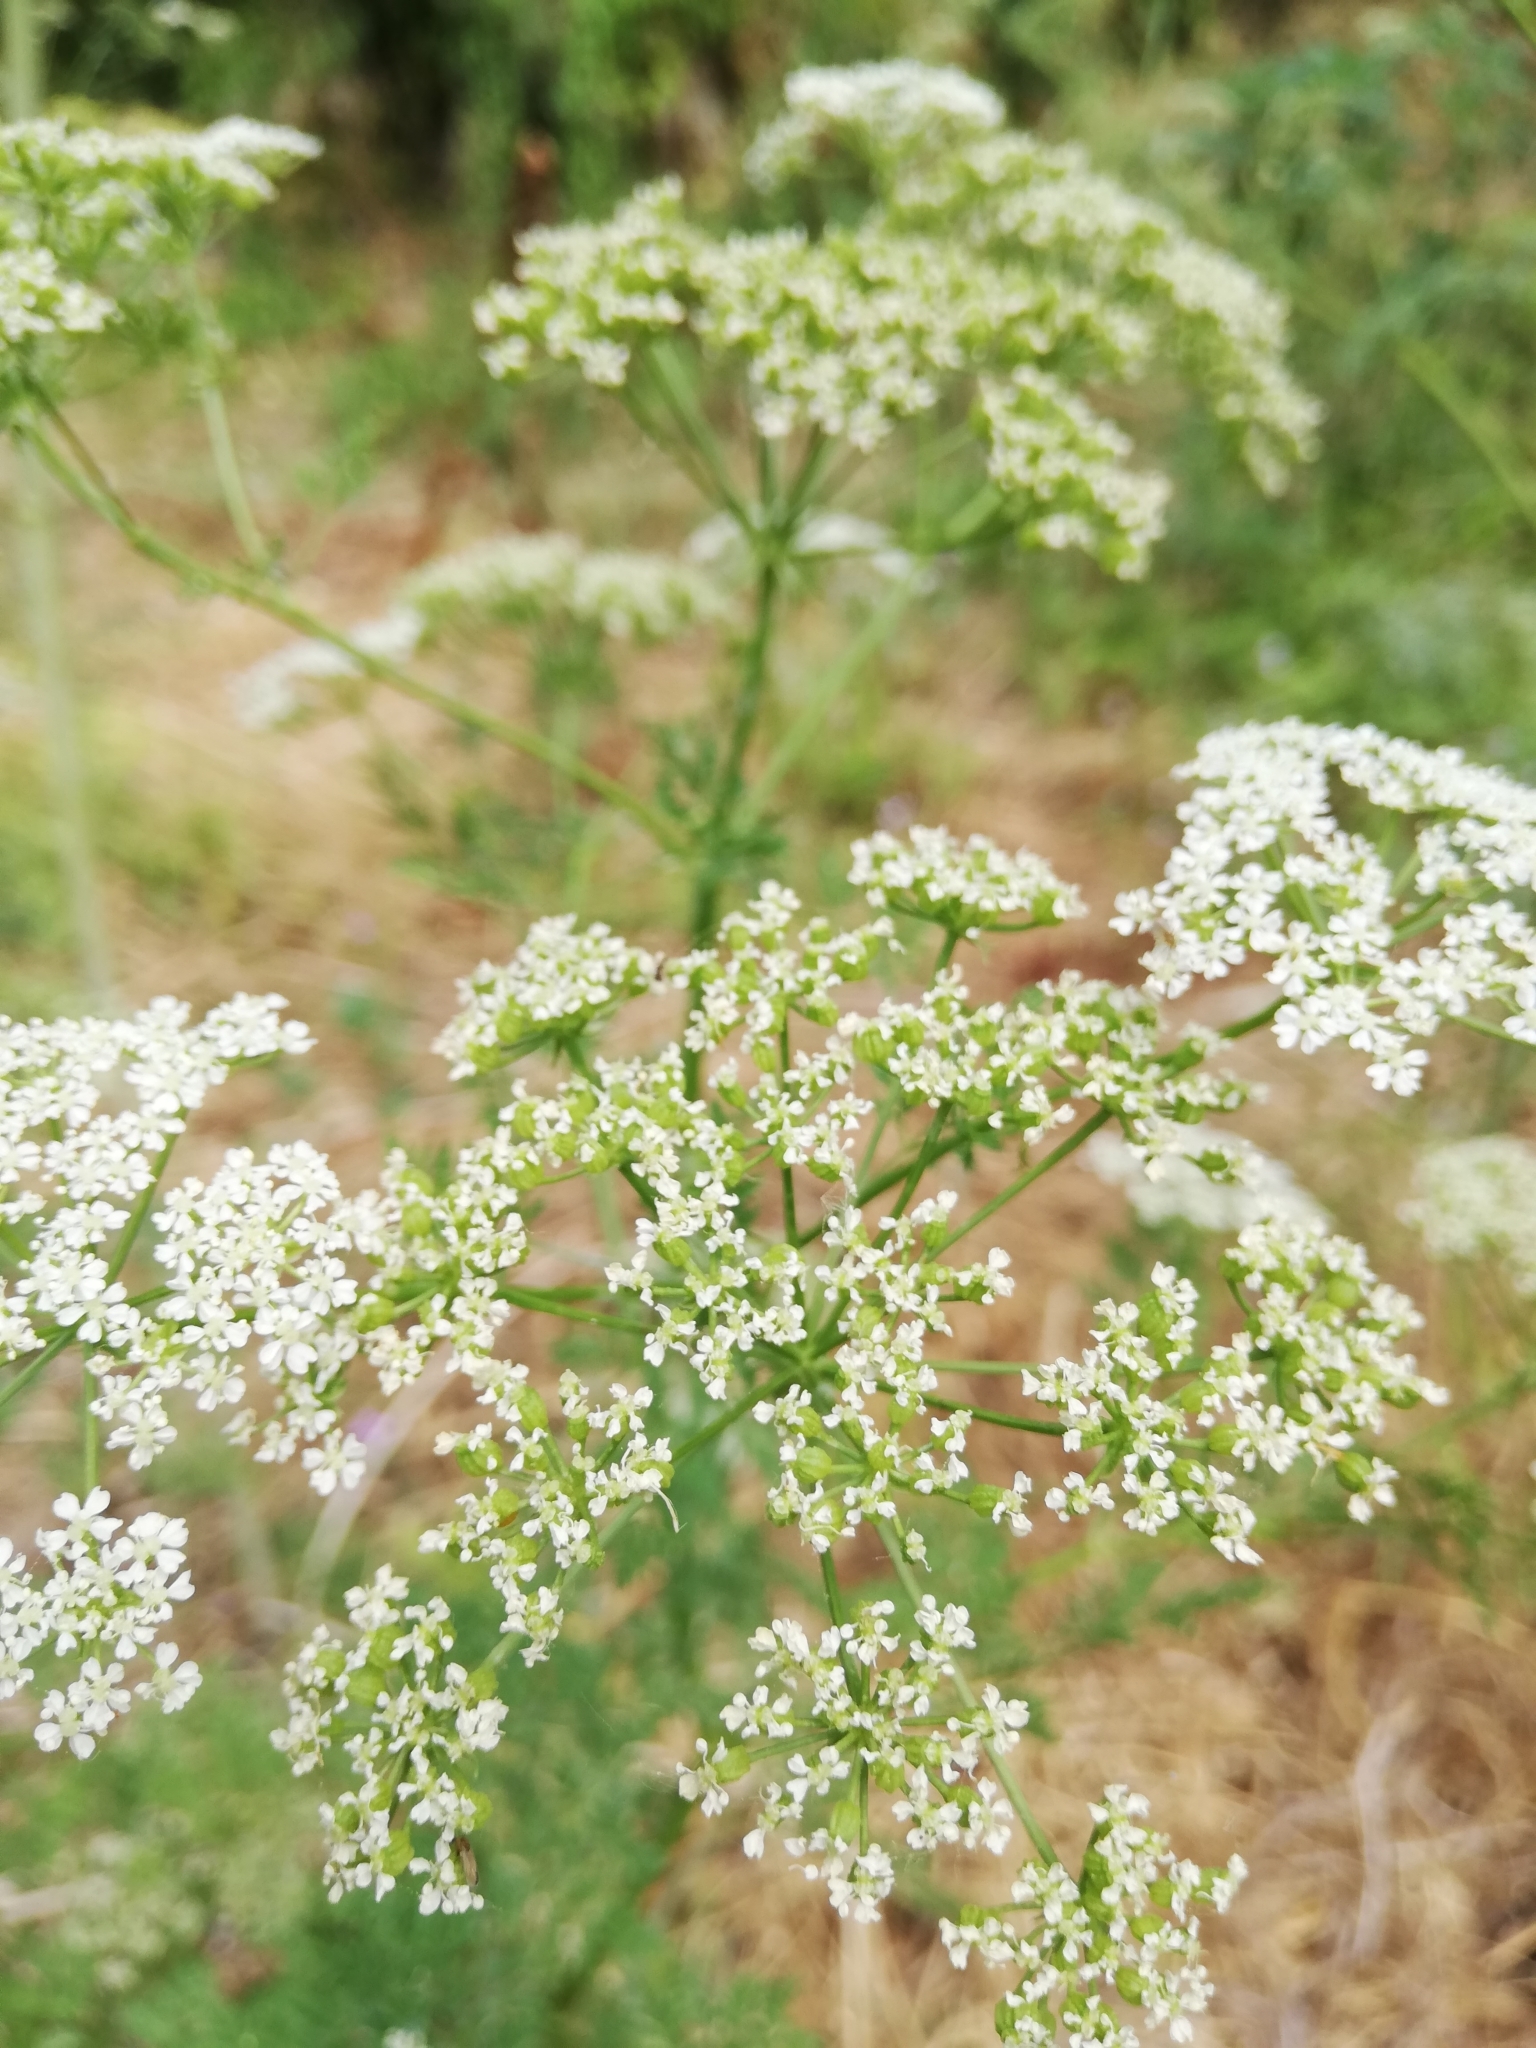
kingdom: Plantae
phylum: Tracheophyta
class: Magnoliopsida
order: Apiales
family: Apiaceae
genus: Conium
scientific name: Conium maculatum
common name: Hemlock
